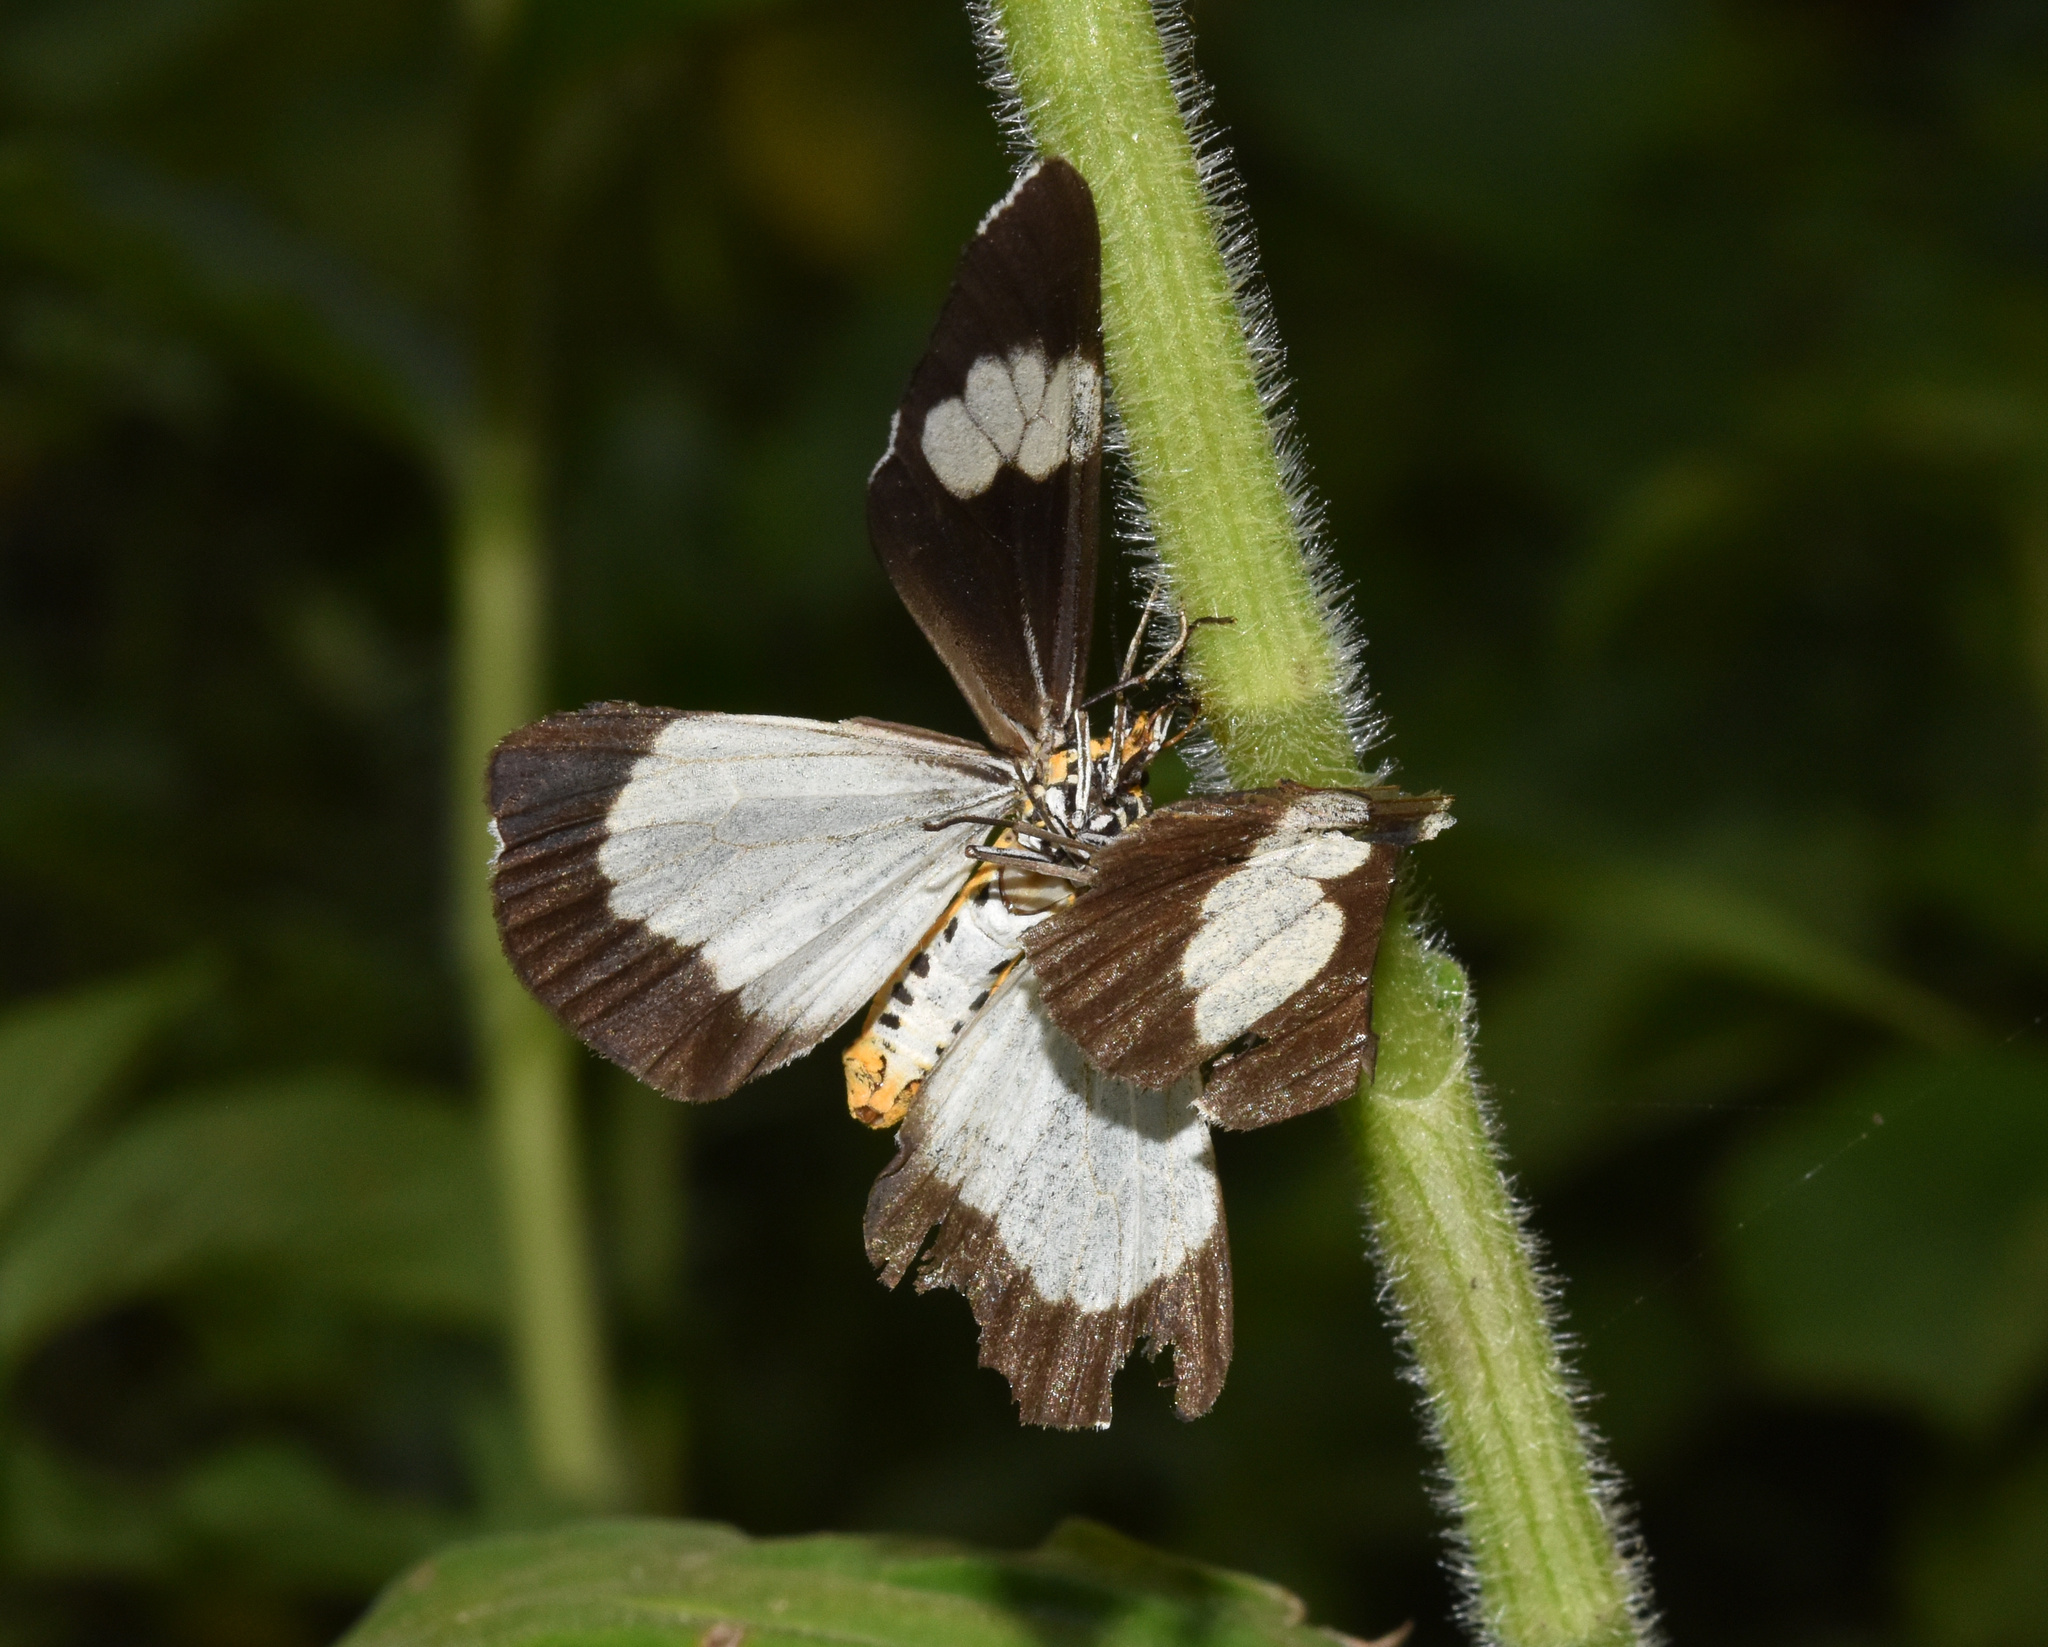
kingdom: Animalia
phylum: Arthropoda
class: Insecta
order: Lepidoptera
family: Erebidae
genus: Nyctemera
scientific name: Nyctemera
